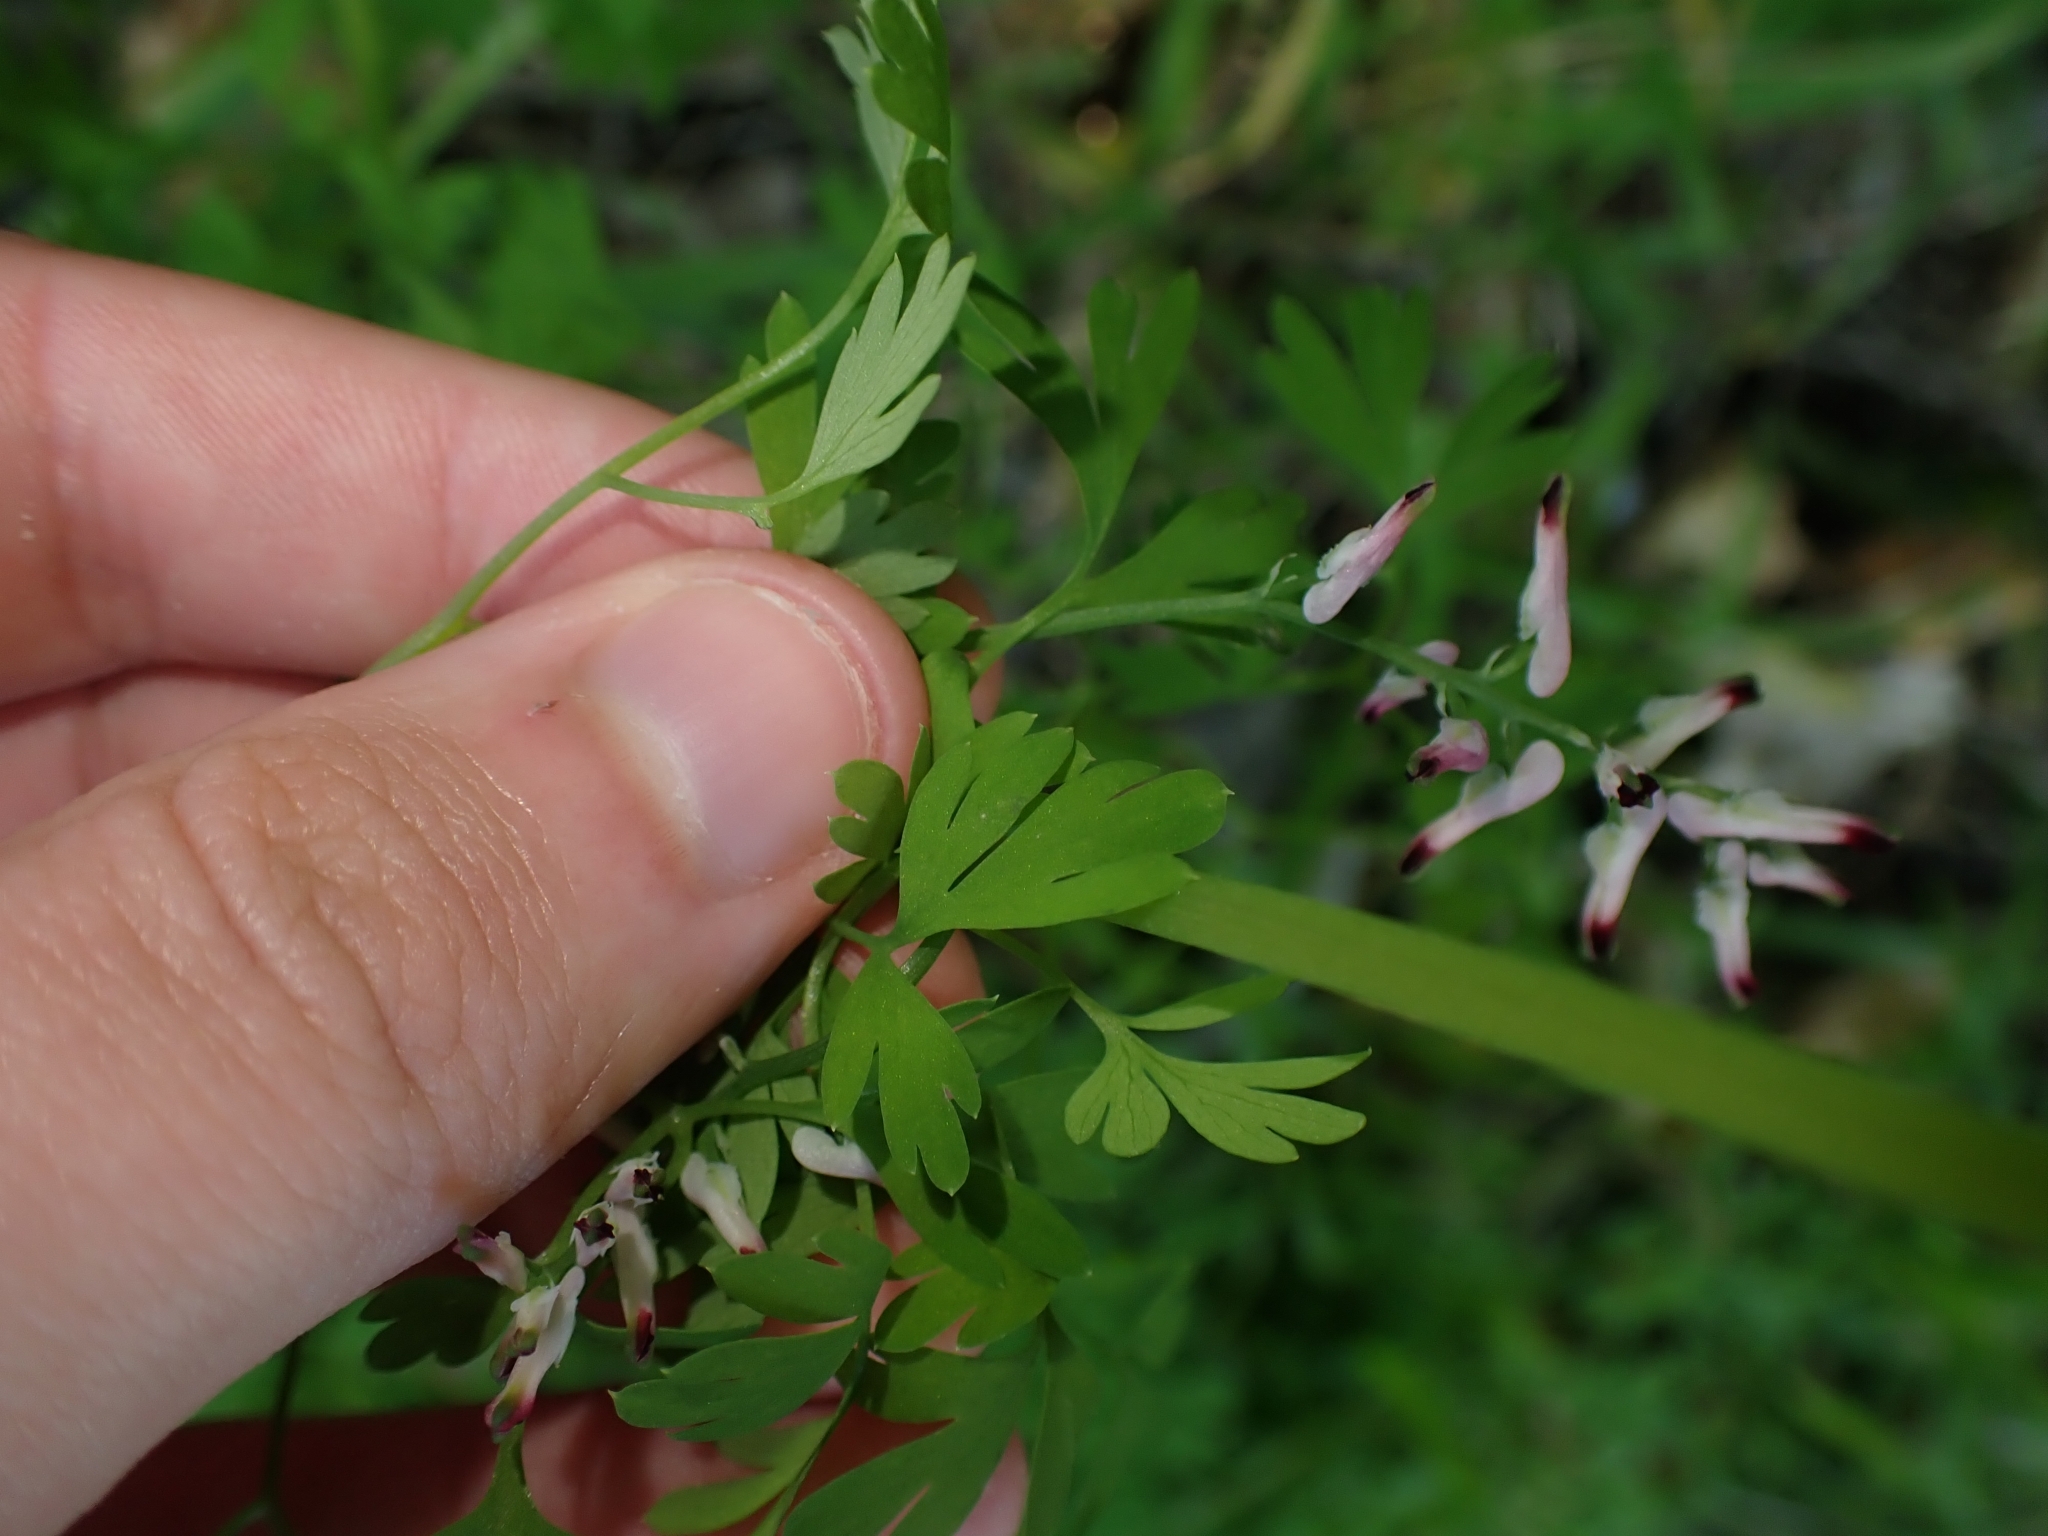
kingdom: Plantae
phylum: Tracheophyta
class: Magnoliopsida
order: Ranunculales
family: Papaveraceae
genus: Fumaria
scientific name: Fumaria muralis
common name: Common ramping-fumitory
